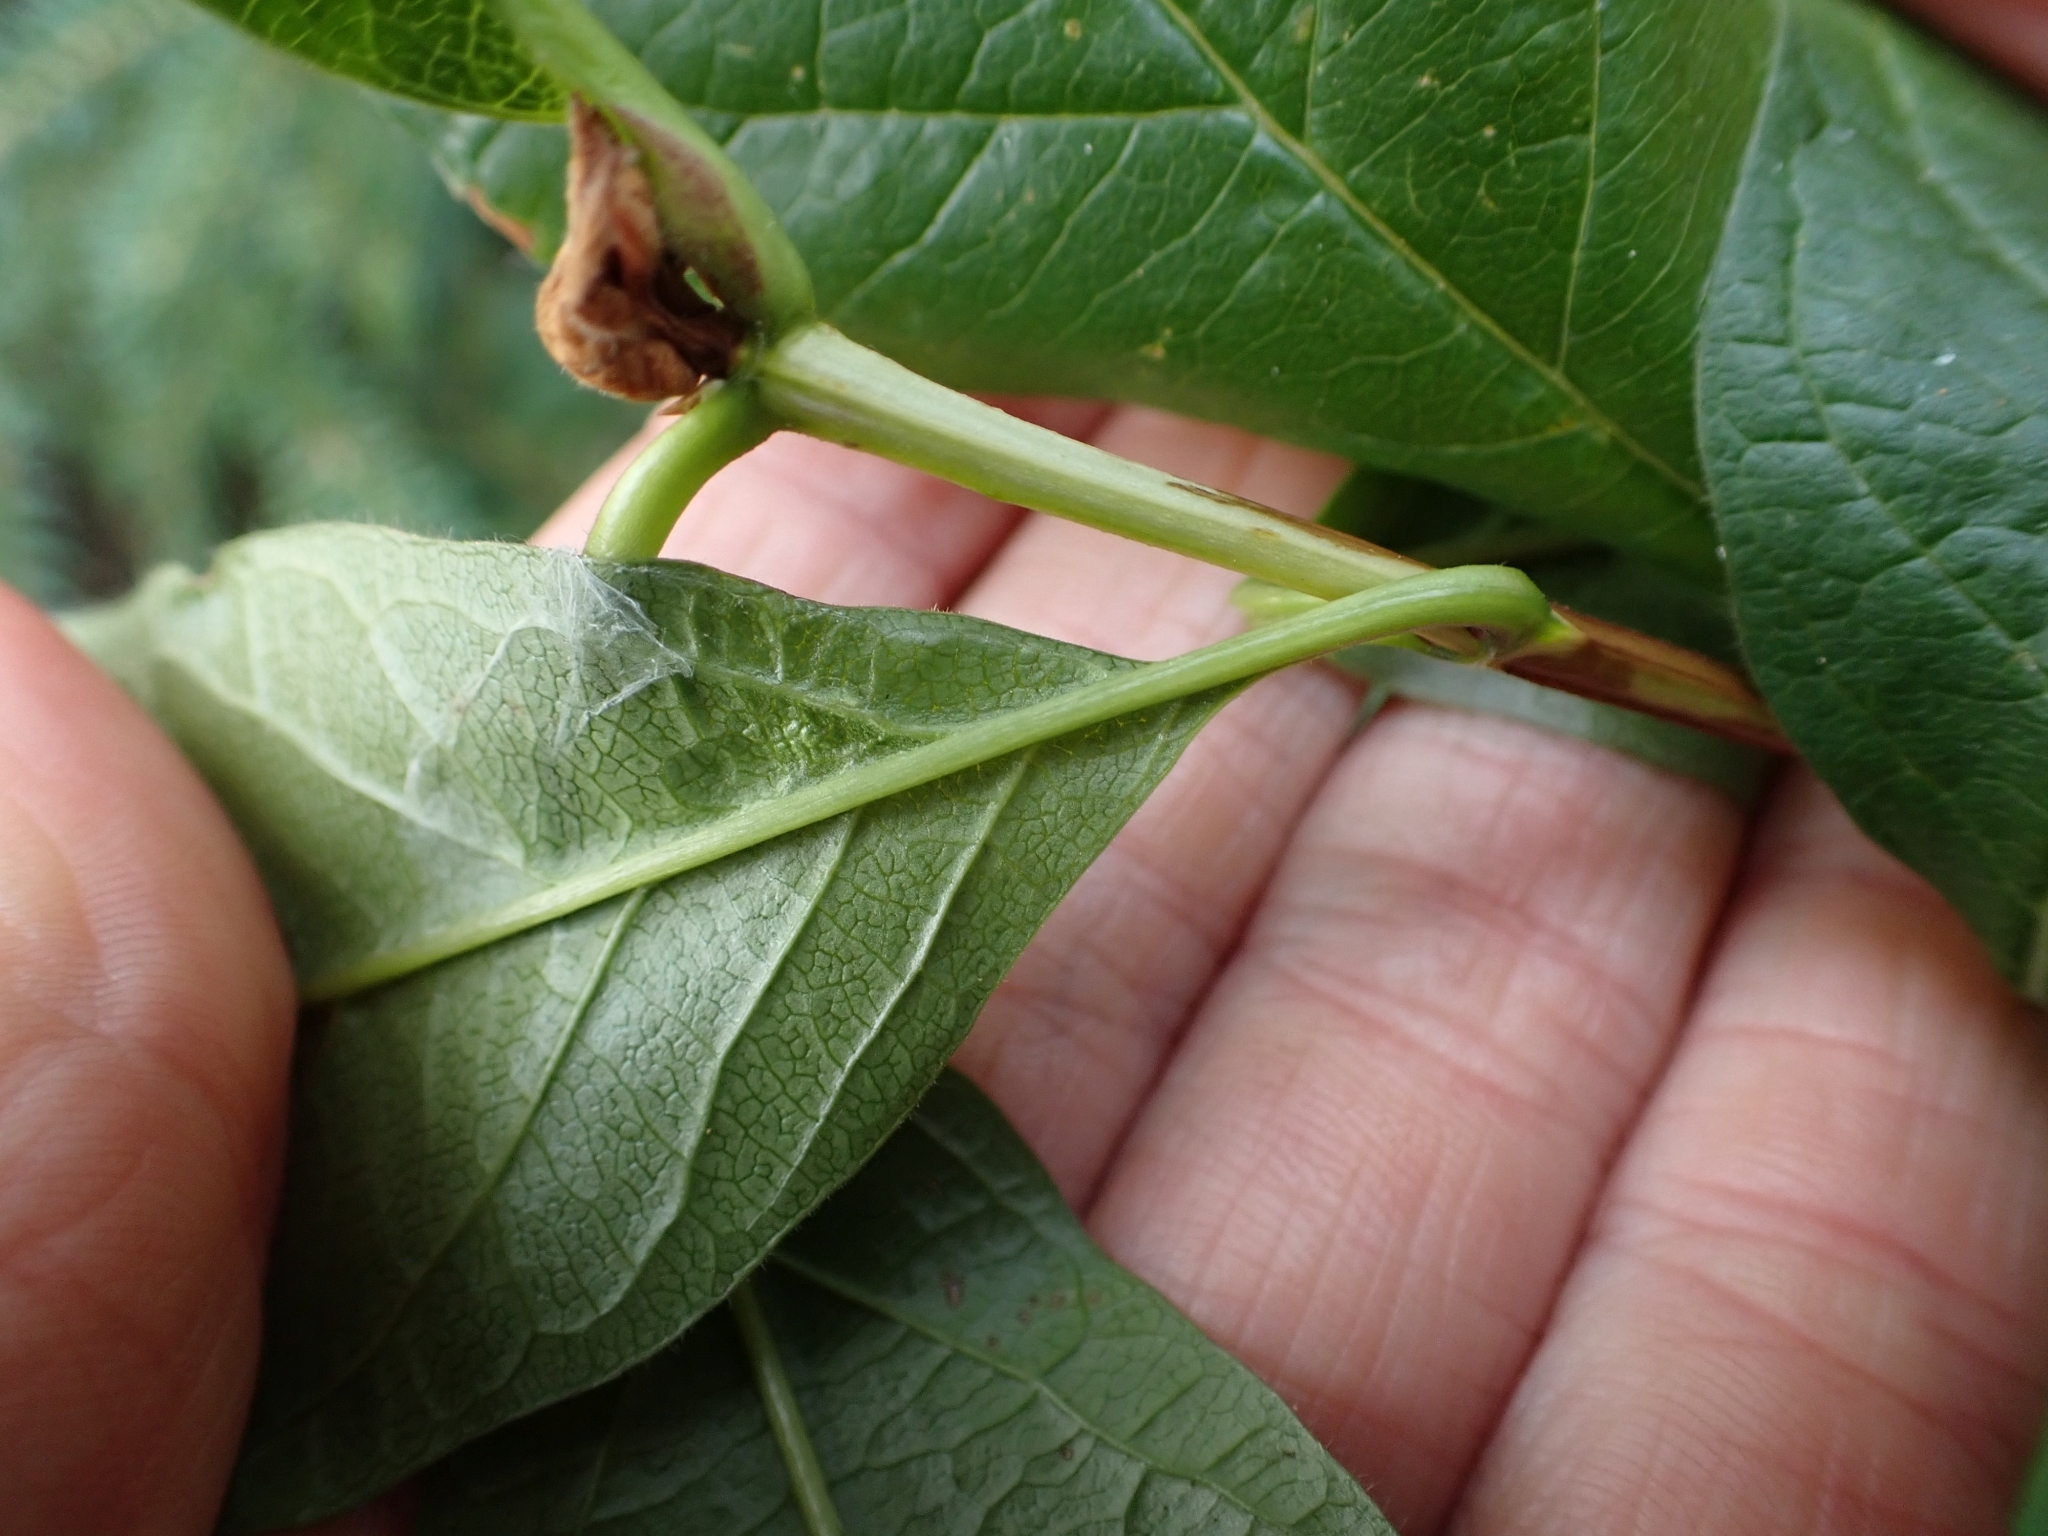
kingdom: Plantae
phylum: Tracheophyta
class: Magnoliopsida
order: Dipsacales
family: Caprifoliaceae
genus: Lonicera
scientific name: Lonicera involucrata
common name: Californian honeysuckle
